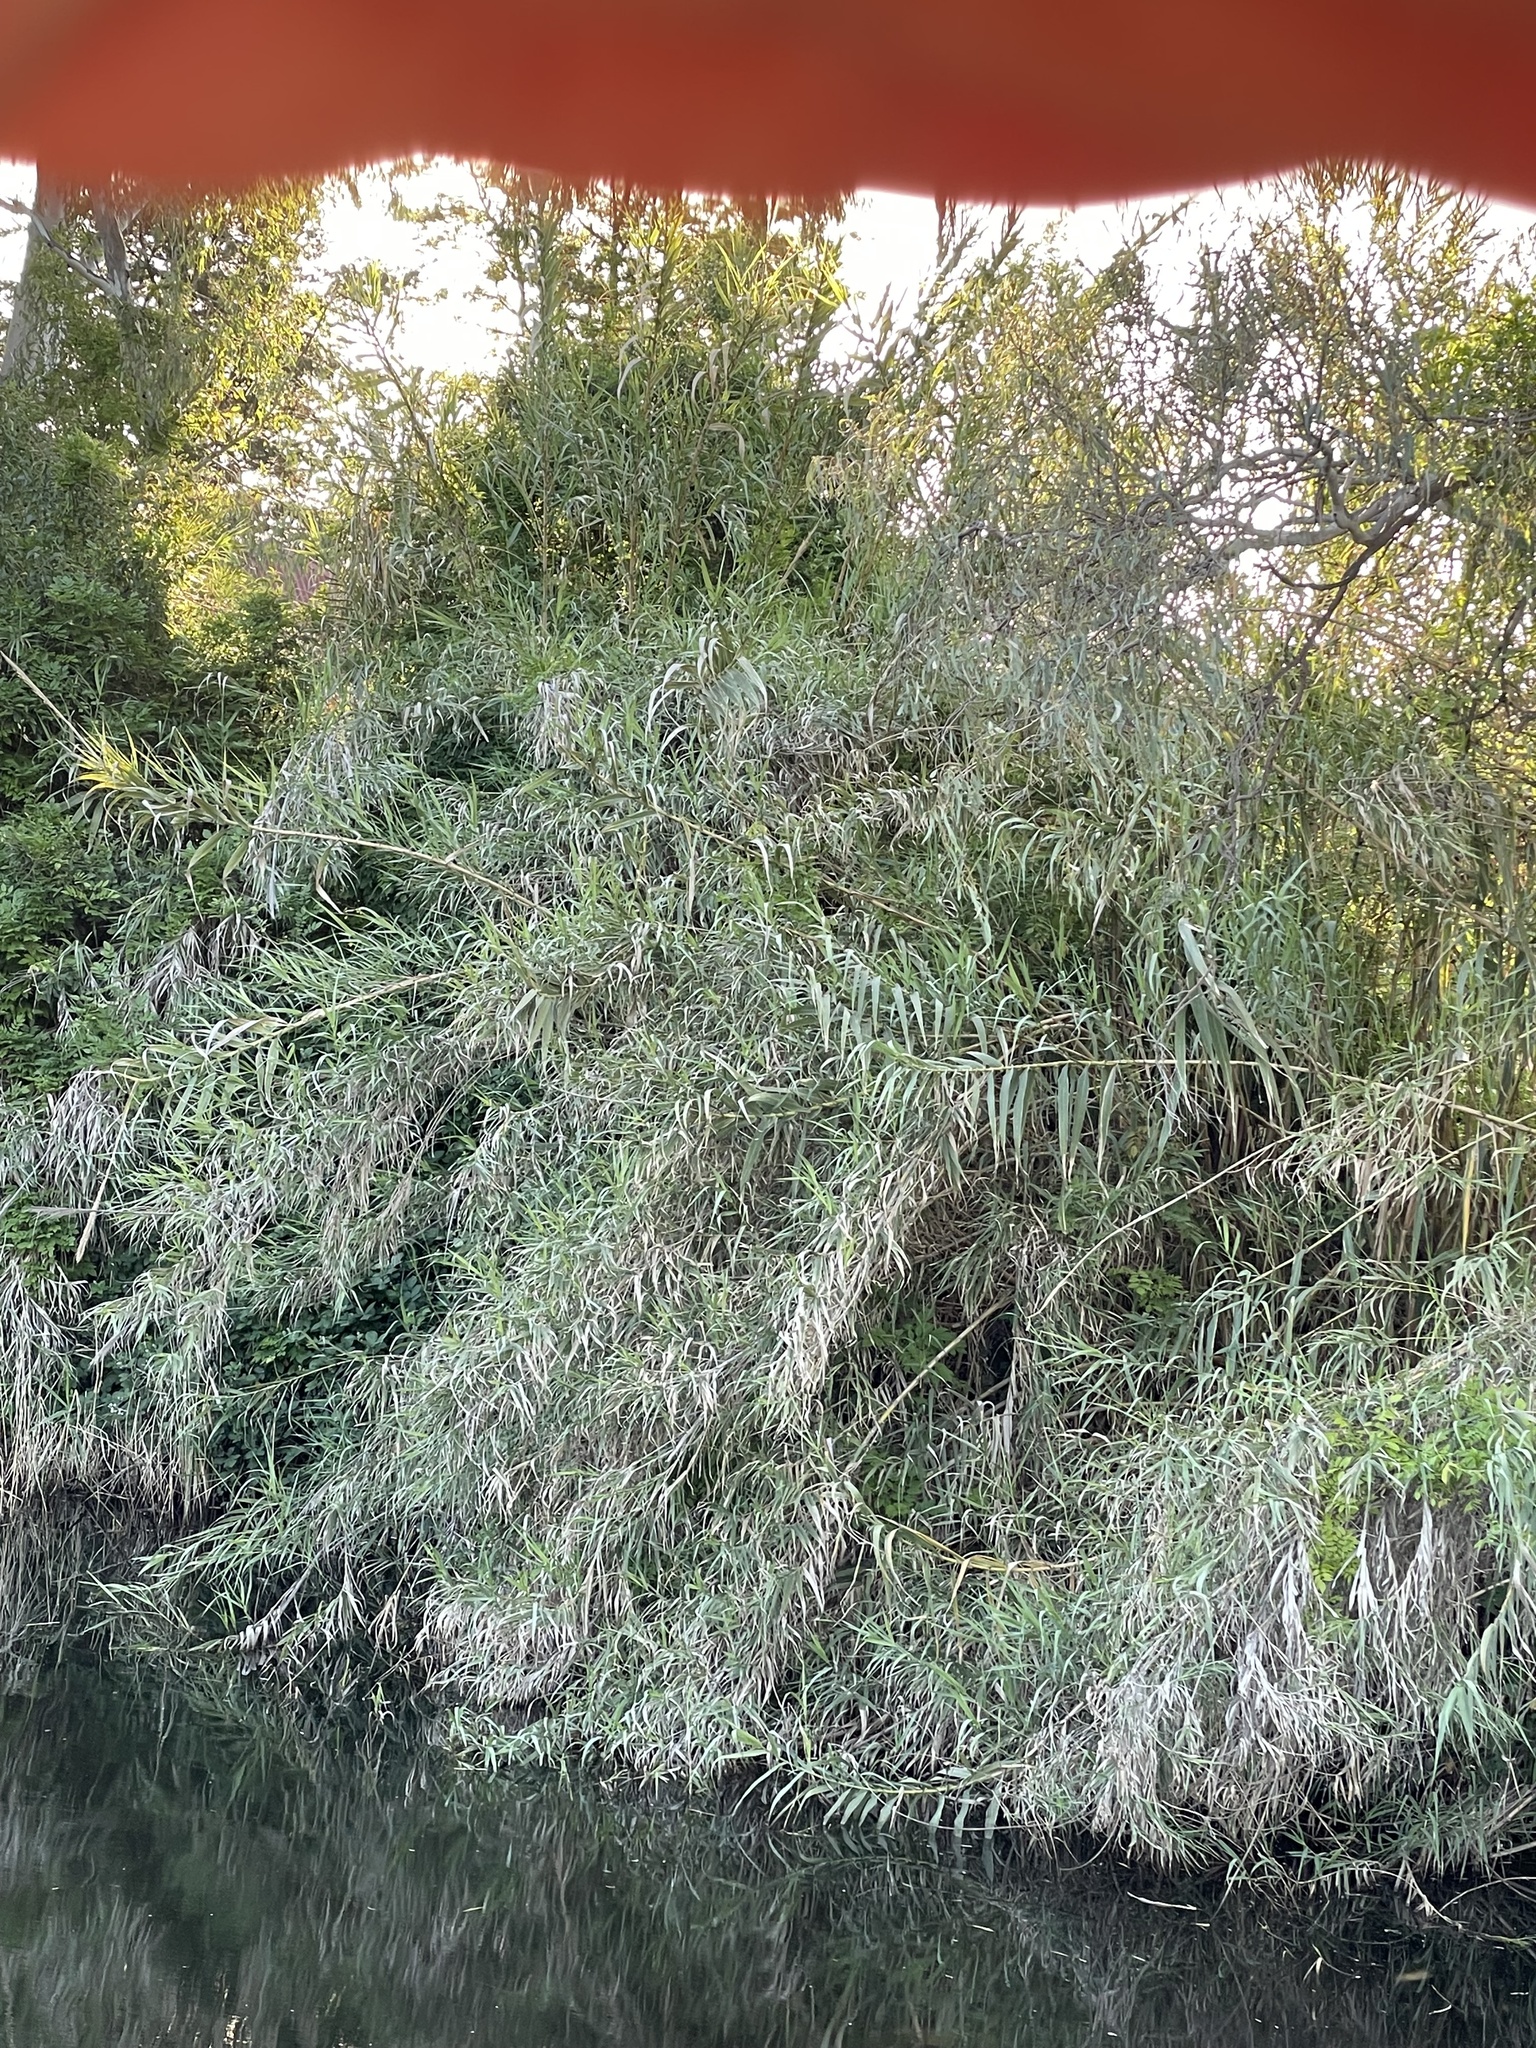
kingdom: Plantae
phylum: Tracheophyta
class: Liliopsida
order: Poales
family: Poaceae
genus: Arundo
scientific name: Arundo donax
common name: Giant reed
